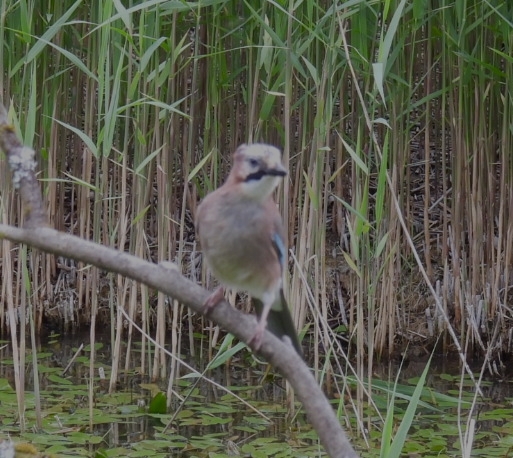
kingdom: Animalia
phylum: Chordata
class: Aves
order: Passeriformes
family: Corvidae
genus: Garrulus
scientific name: Garrulus glandarius
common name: Eurasian jay
